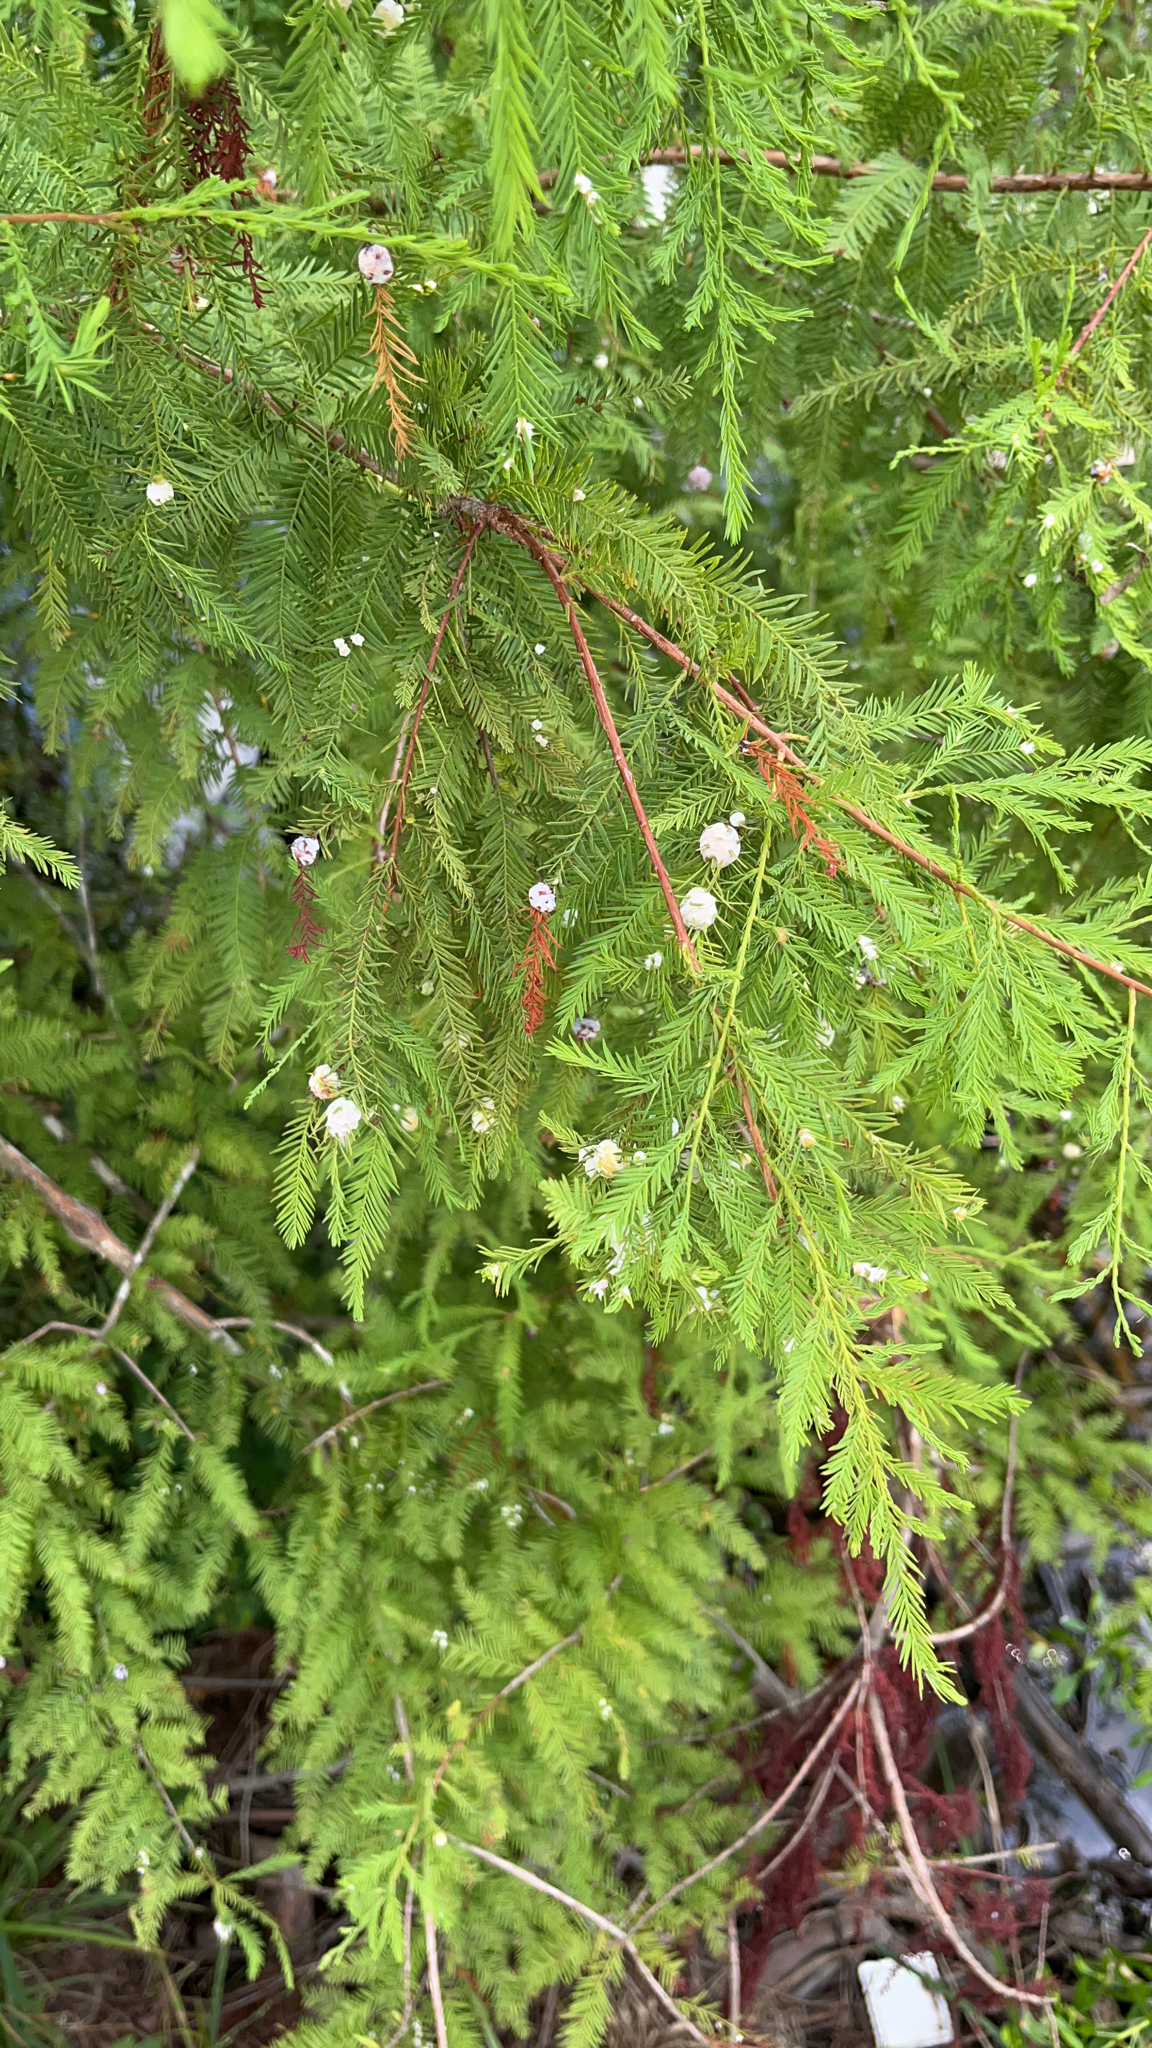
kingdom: Animalia
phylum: Arthropoda
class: Insecta
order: Diptera
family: Cecidomyiidae
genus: Taxodiomyia
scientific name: Taxodiomyia cupressiananassa
